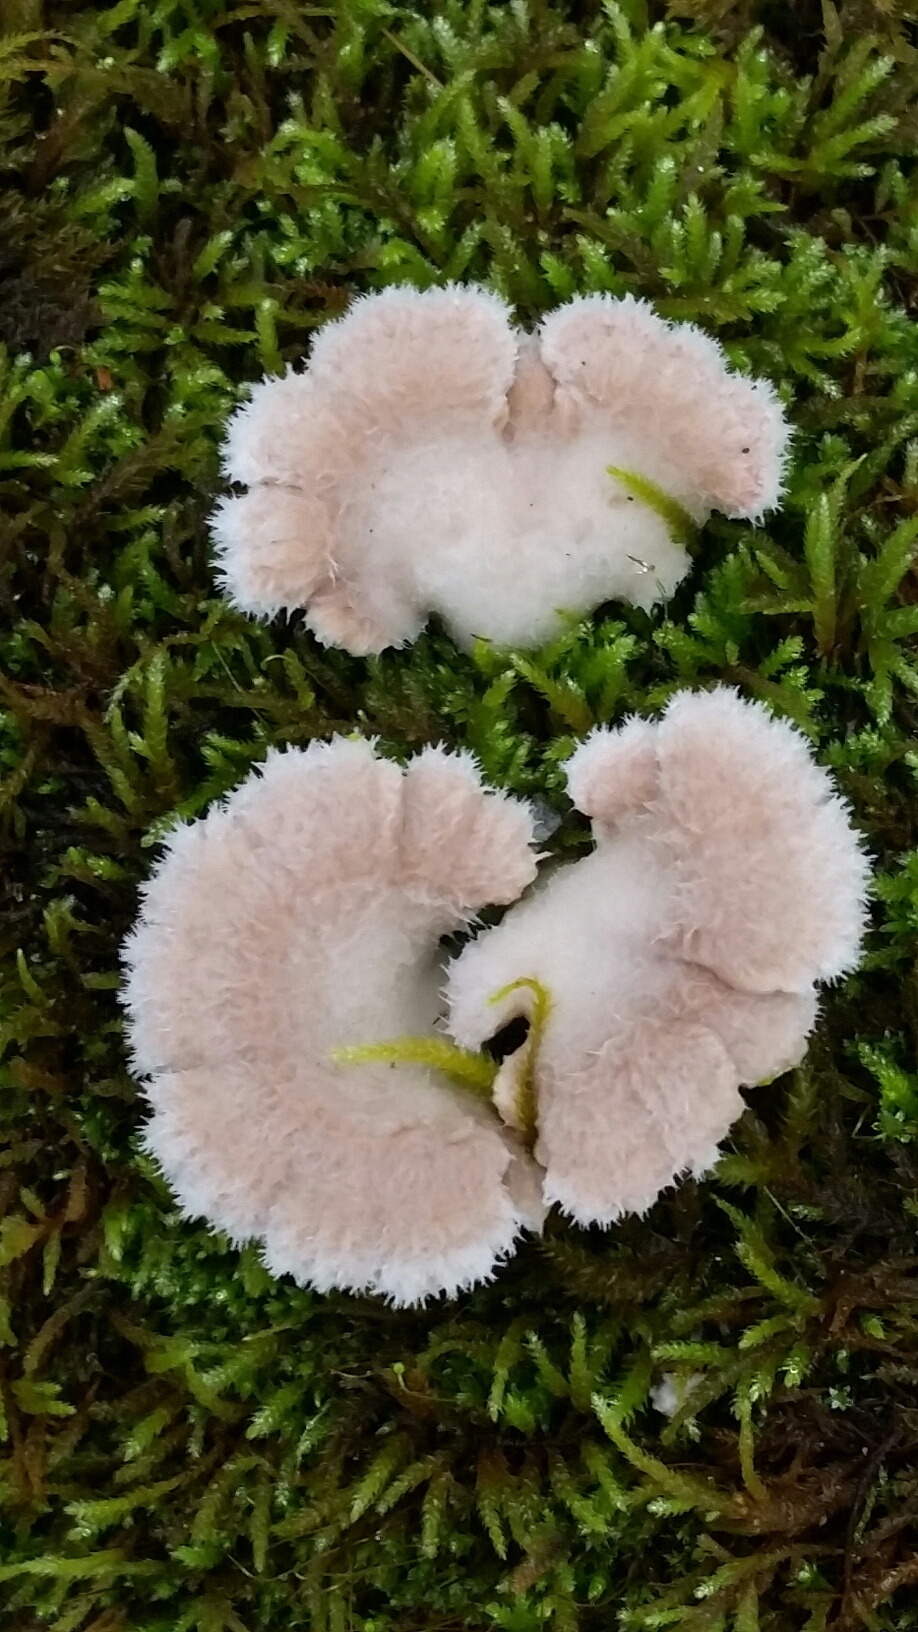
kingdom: Fungi
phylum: Basidiomycota
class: Agaricomycetes
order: Agaricales
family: Schizophyllaceae
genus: Schizophyllum
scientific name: Schizophyllum commune
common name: Common porecrust
